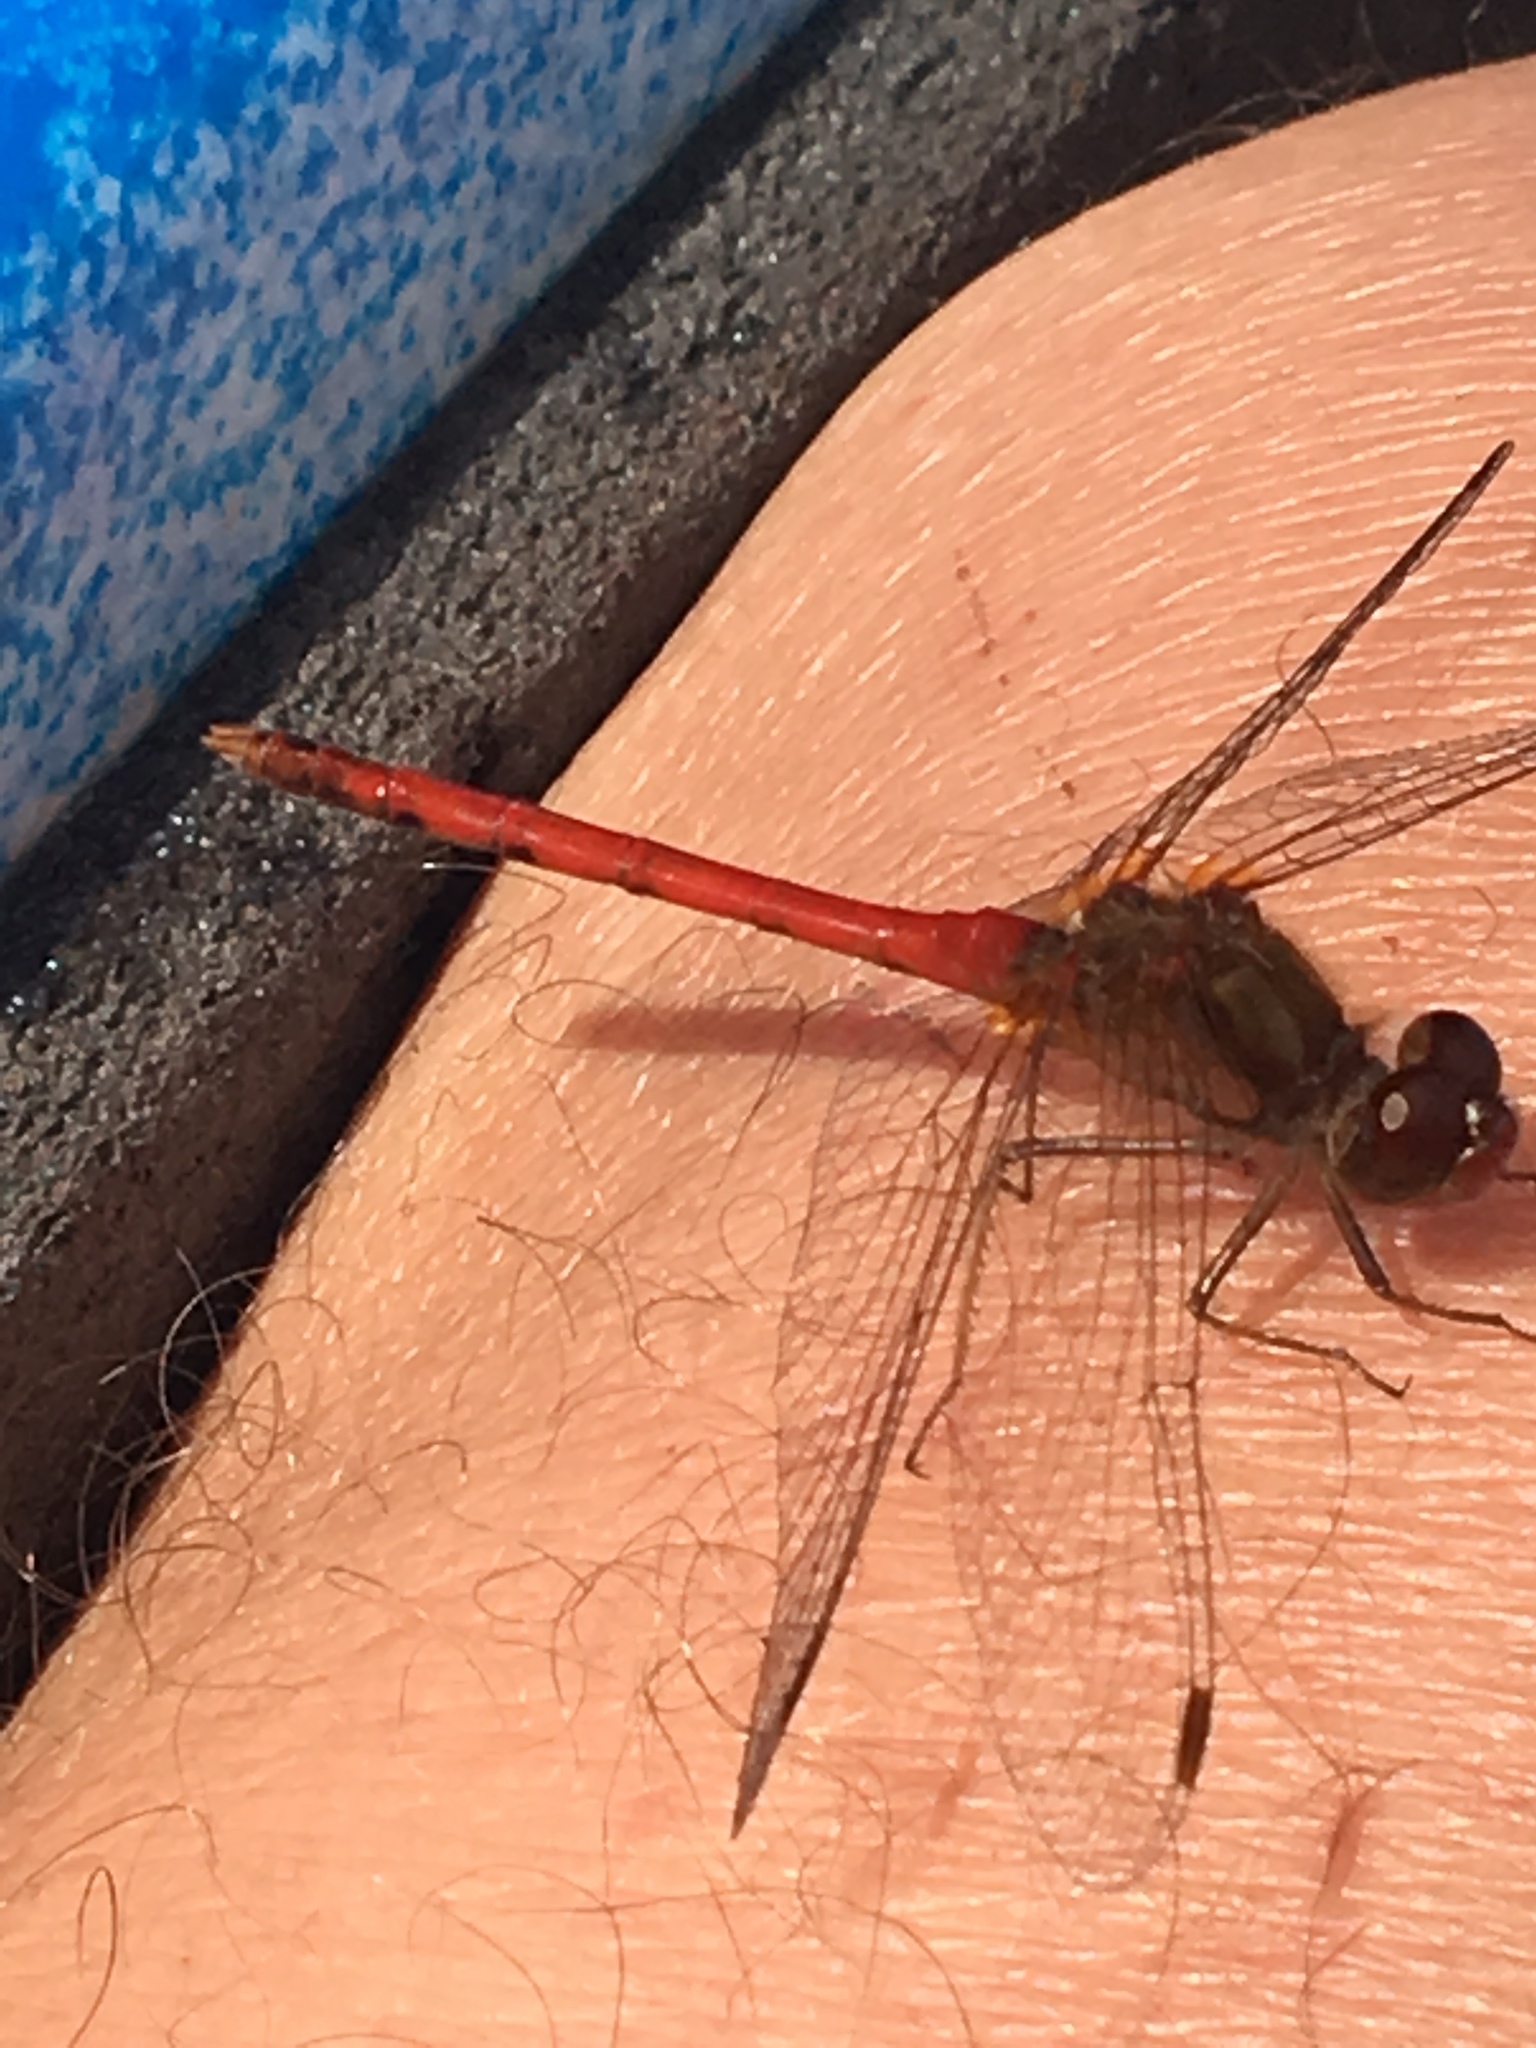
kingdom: Animalia
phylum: Arthropoda
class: Insecta
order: Odonata
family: Libellulidae
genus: Sympetrum
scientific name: Sympetrum vicinum
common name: Autumn meadowhawk
